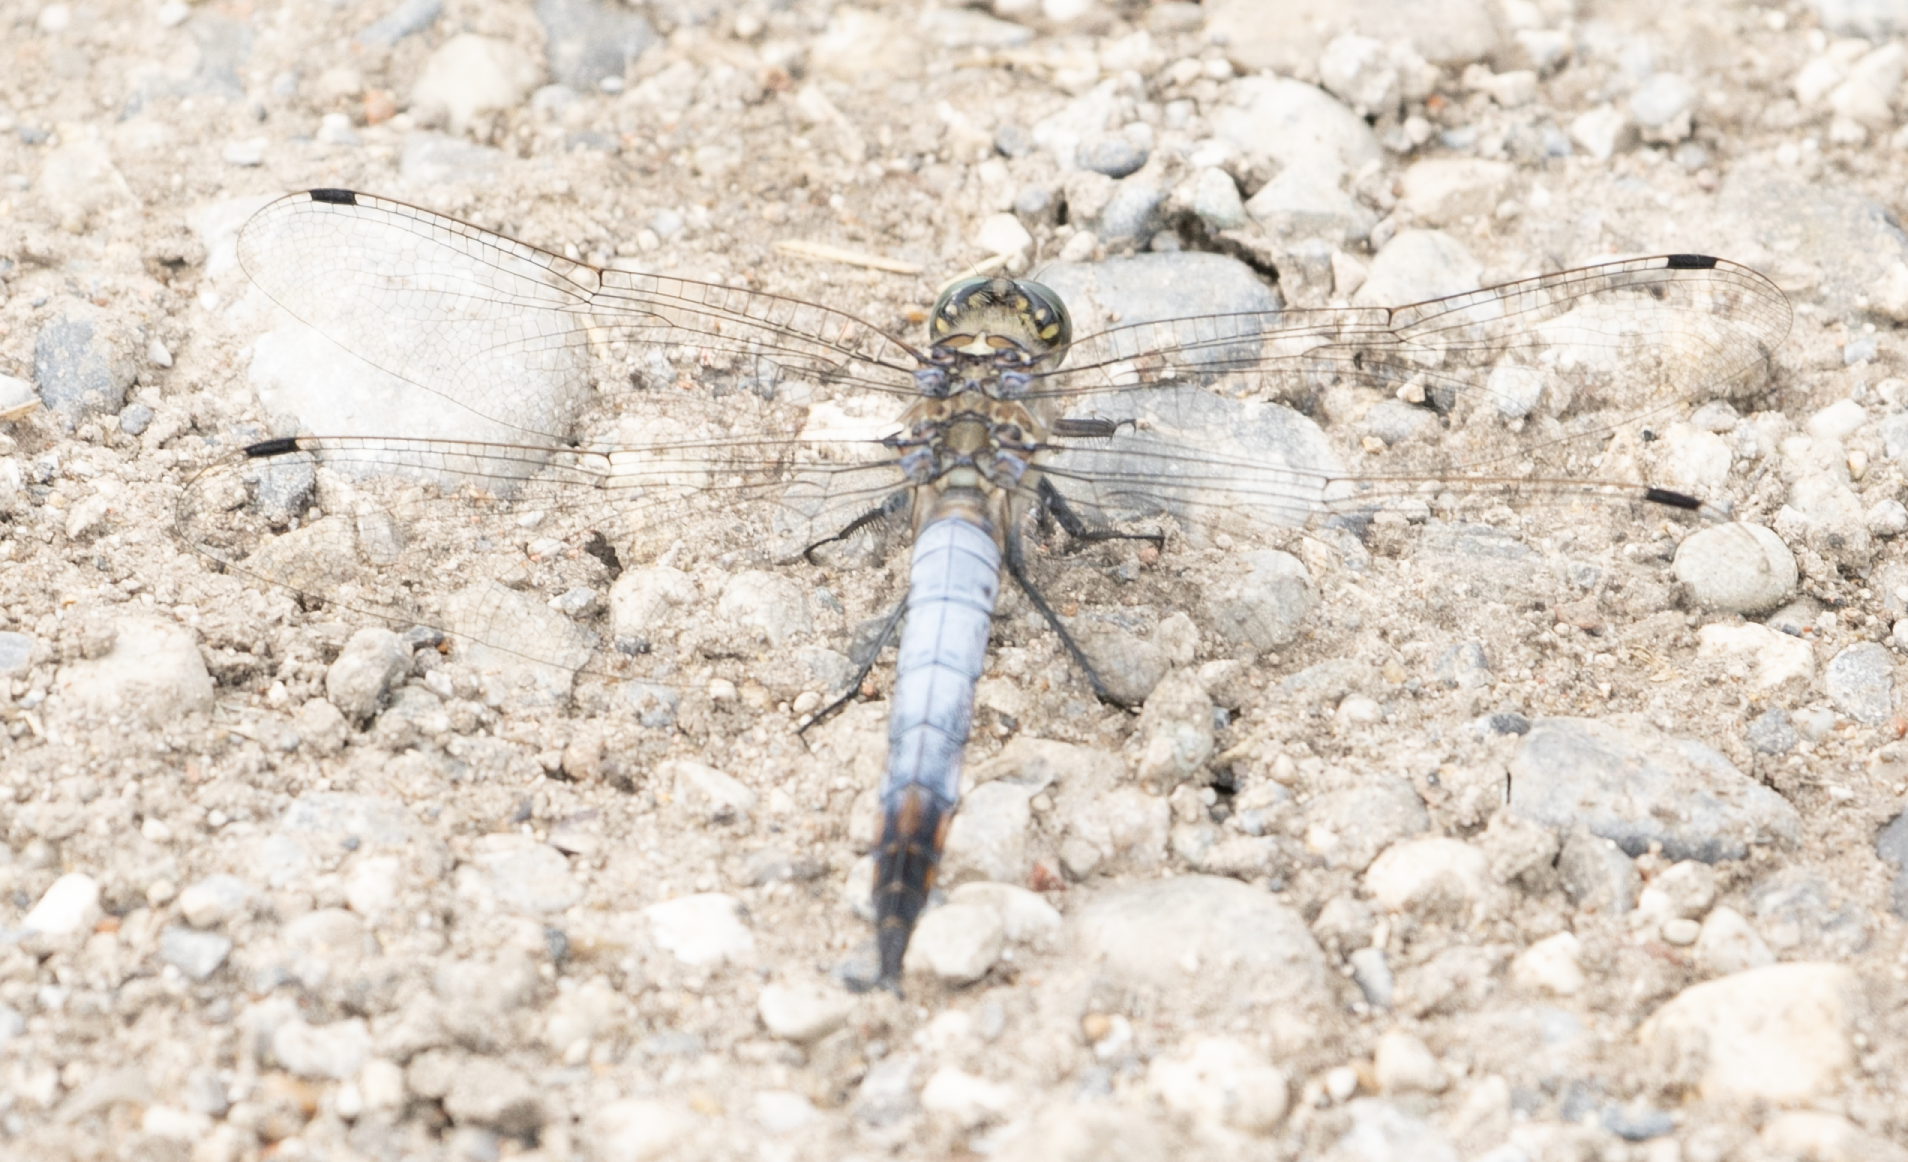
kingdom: Animalia
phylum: Arthropoda
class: Insecta
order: Odonata
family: Libellulidae
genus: Orthetrum
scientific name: Orthetrum cancellatum
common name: Black-tailed skimmer
